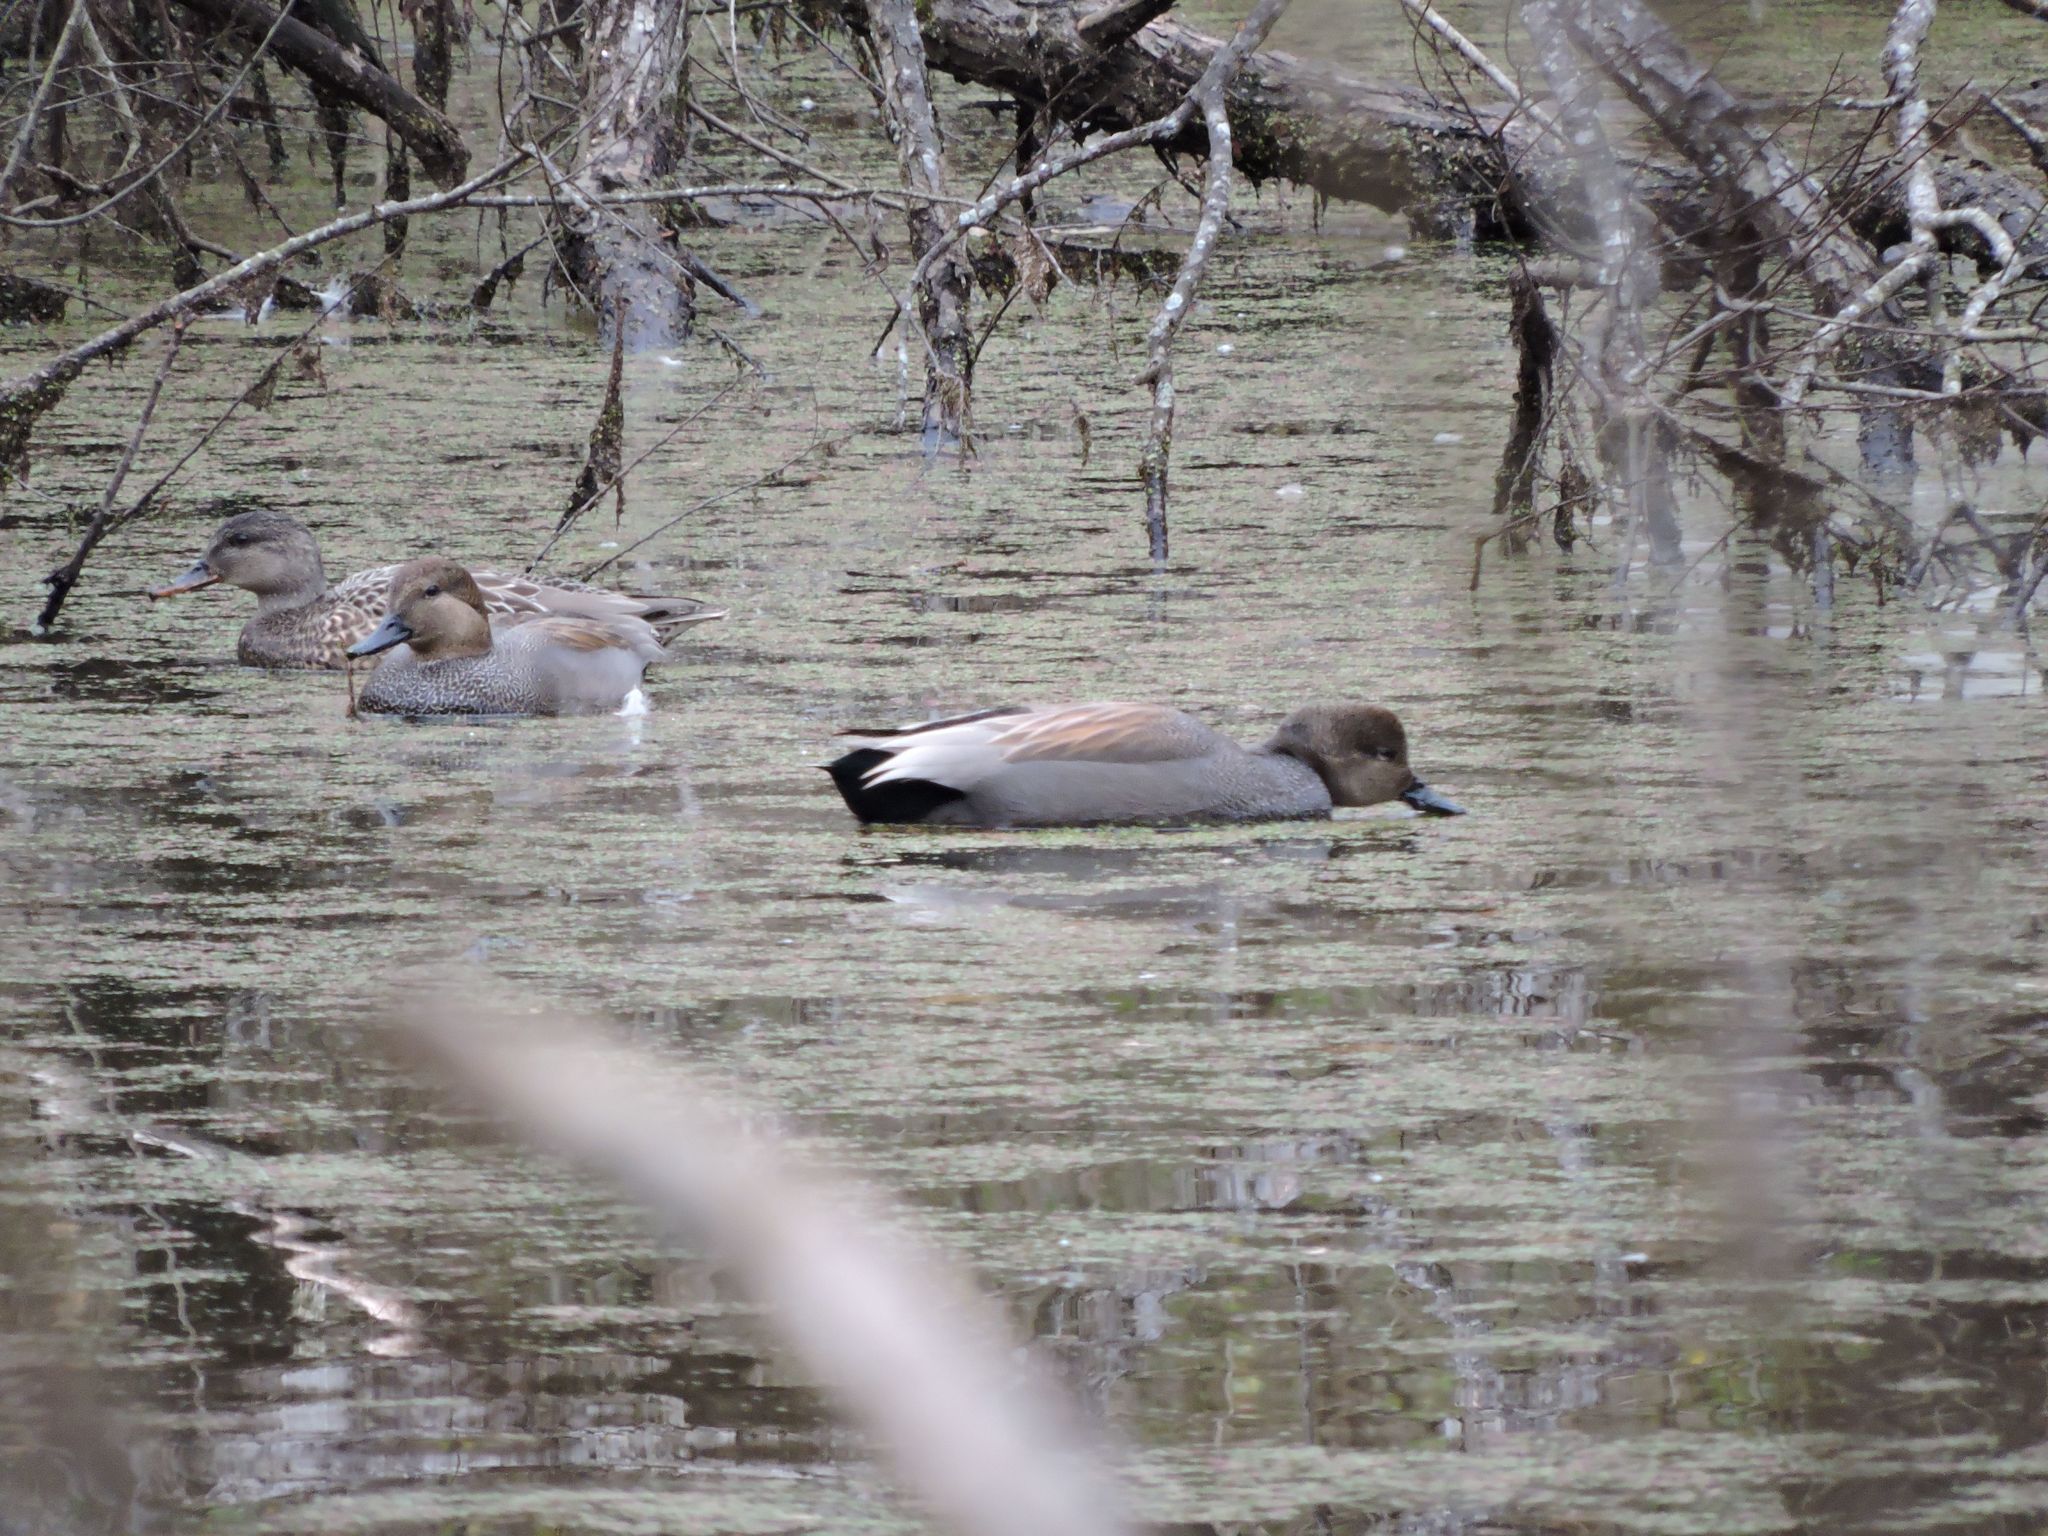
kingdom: Animalia
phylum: Chordata
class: Aves
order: Anseriformes
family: Anatidae
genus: Mareca
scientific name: Mareca strepera
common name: Gadwall
